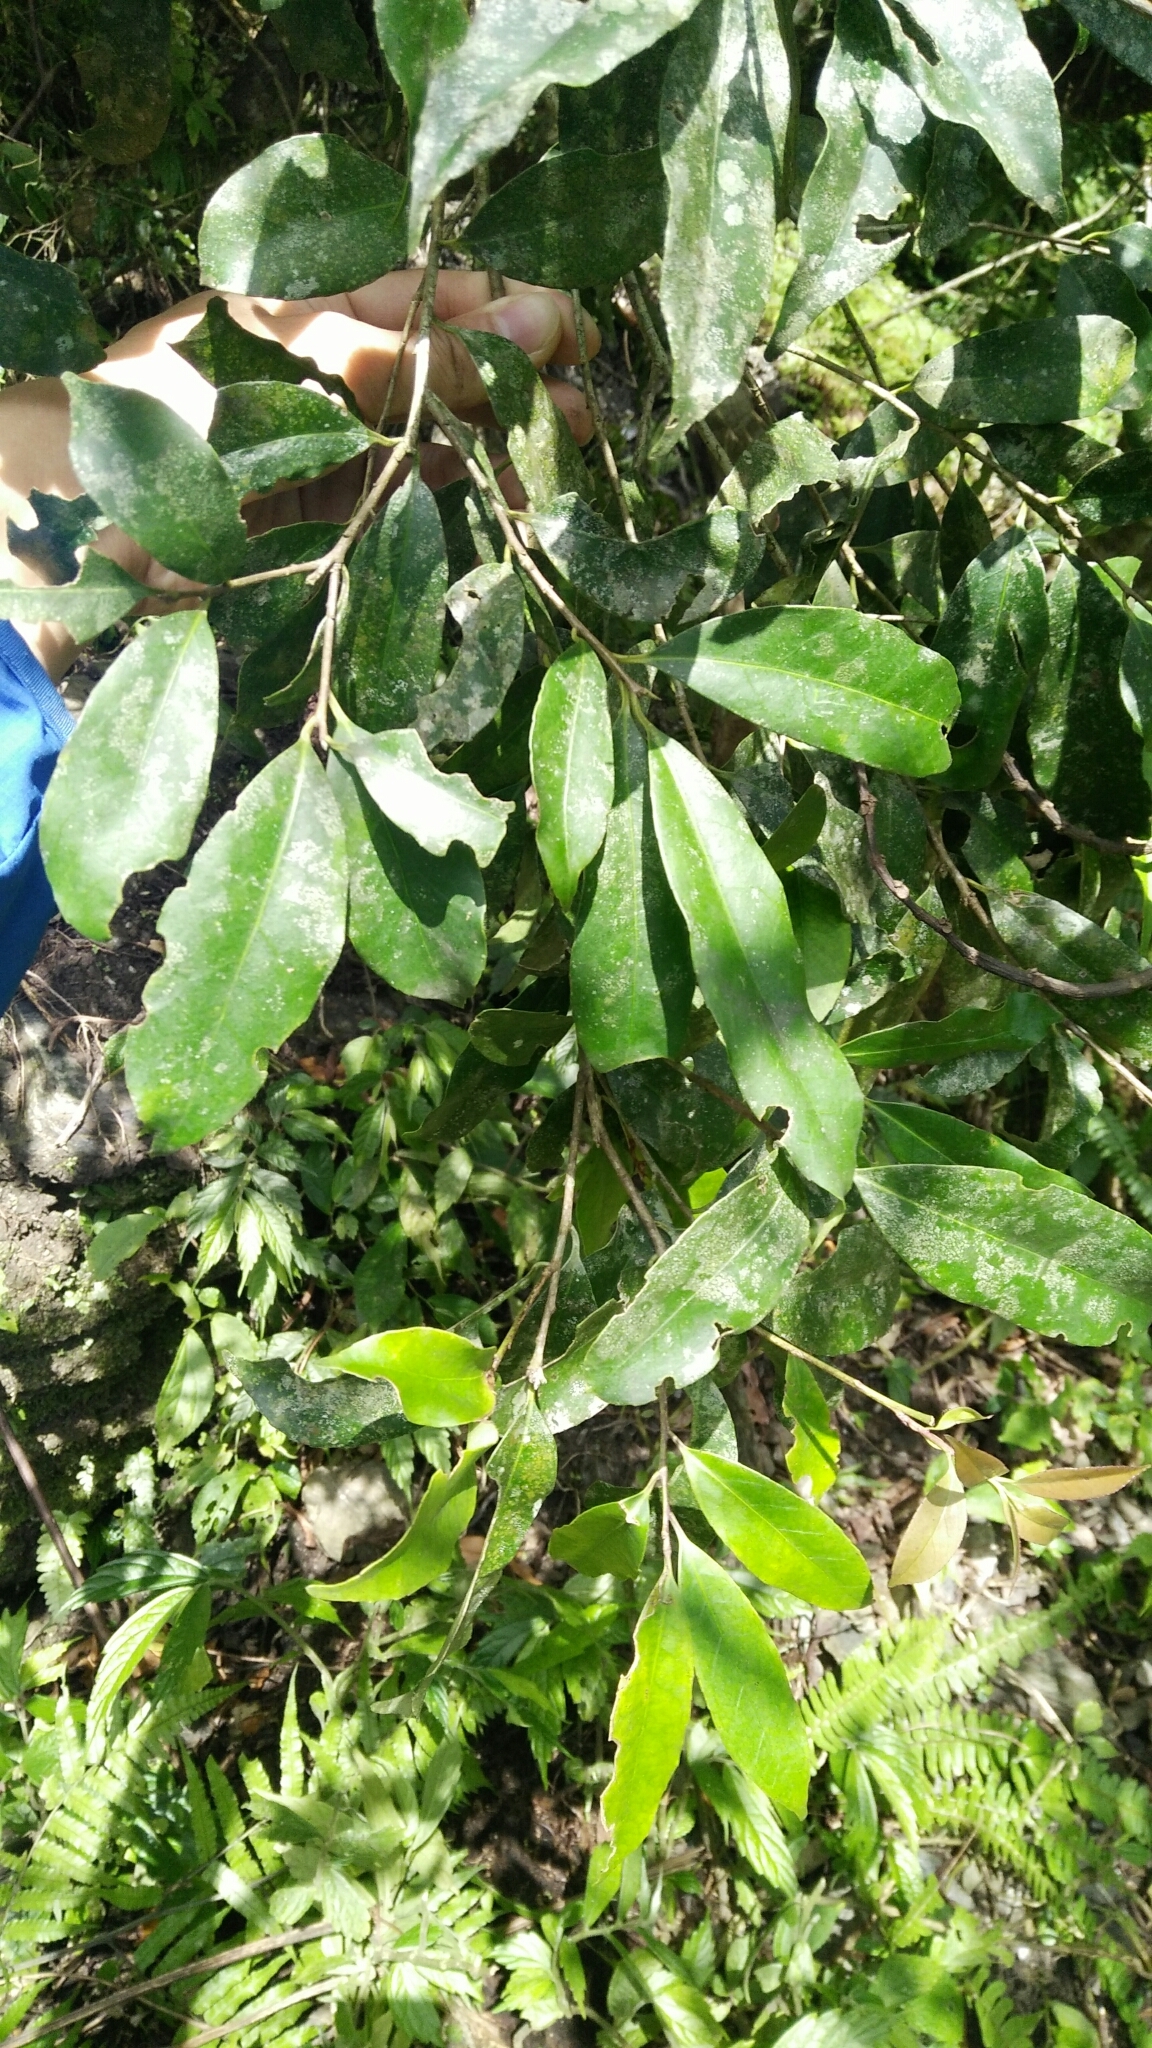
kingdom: Plantae
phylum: Tracheophyta
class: Magnoliopsida
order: Aquifoliales
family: Aquifoliaceae
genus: Ilex
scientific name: Ilex formosana
